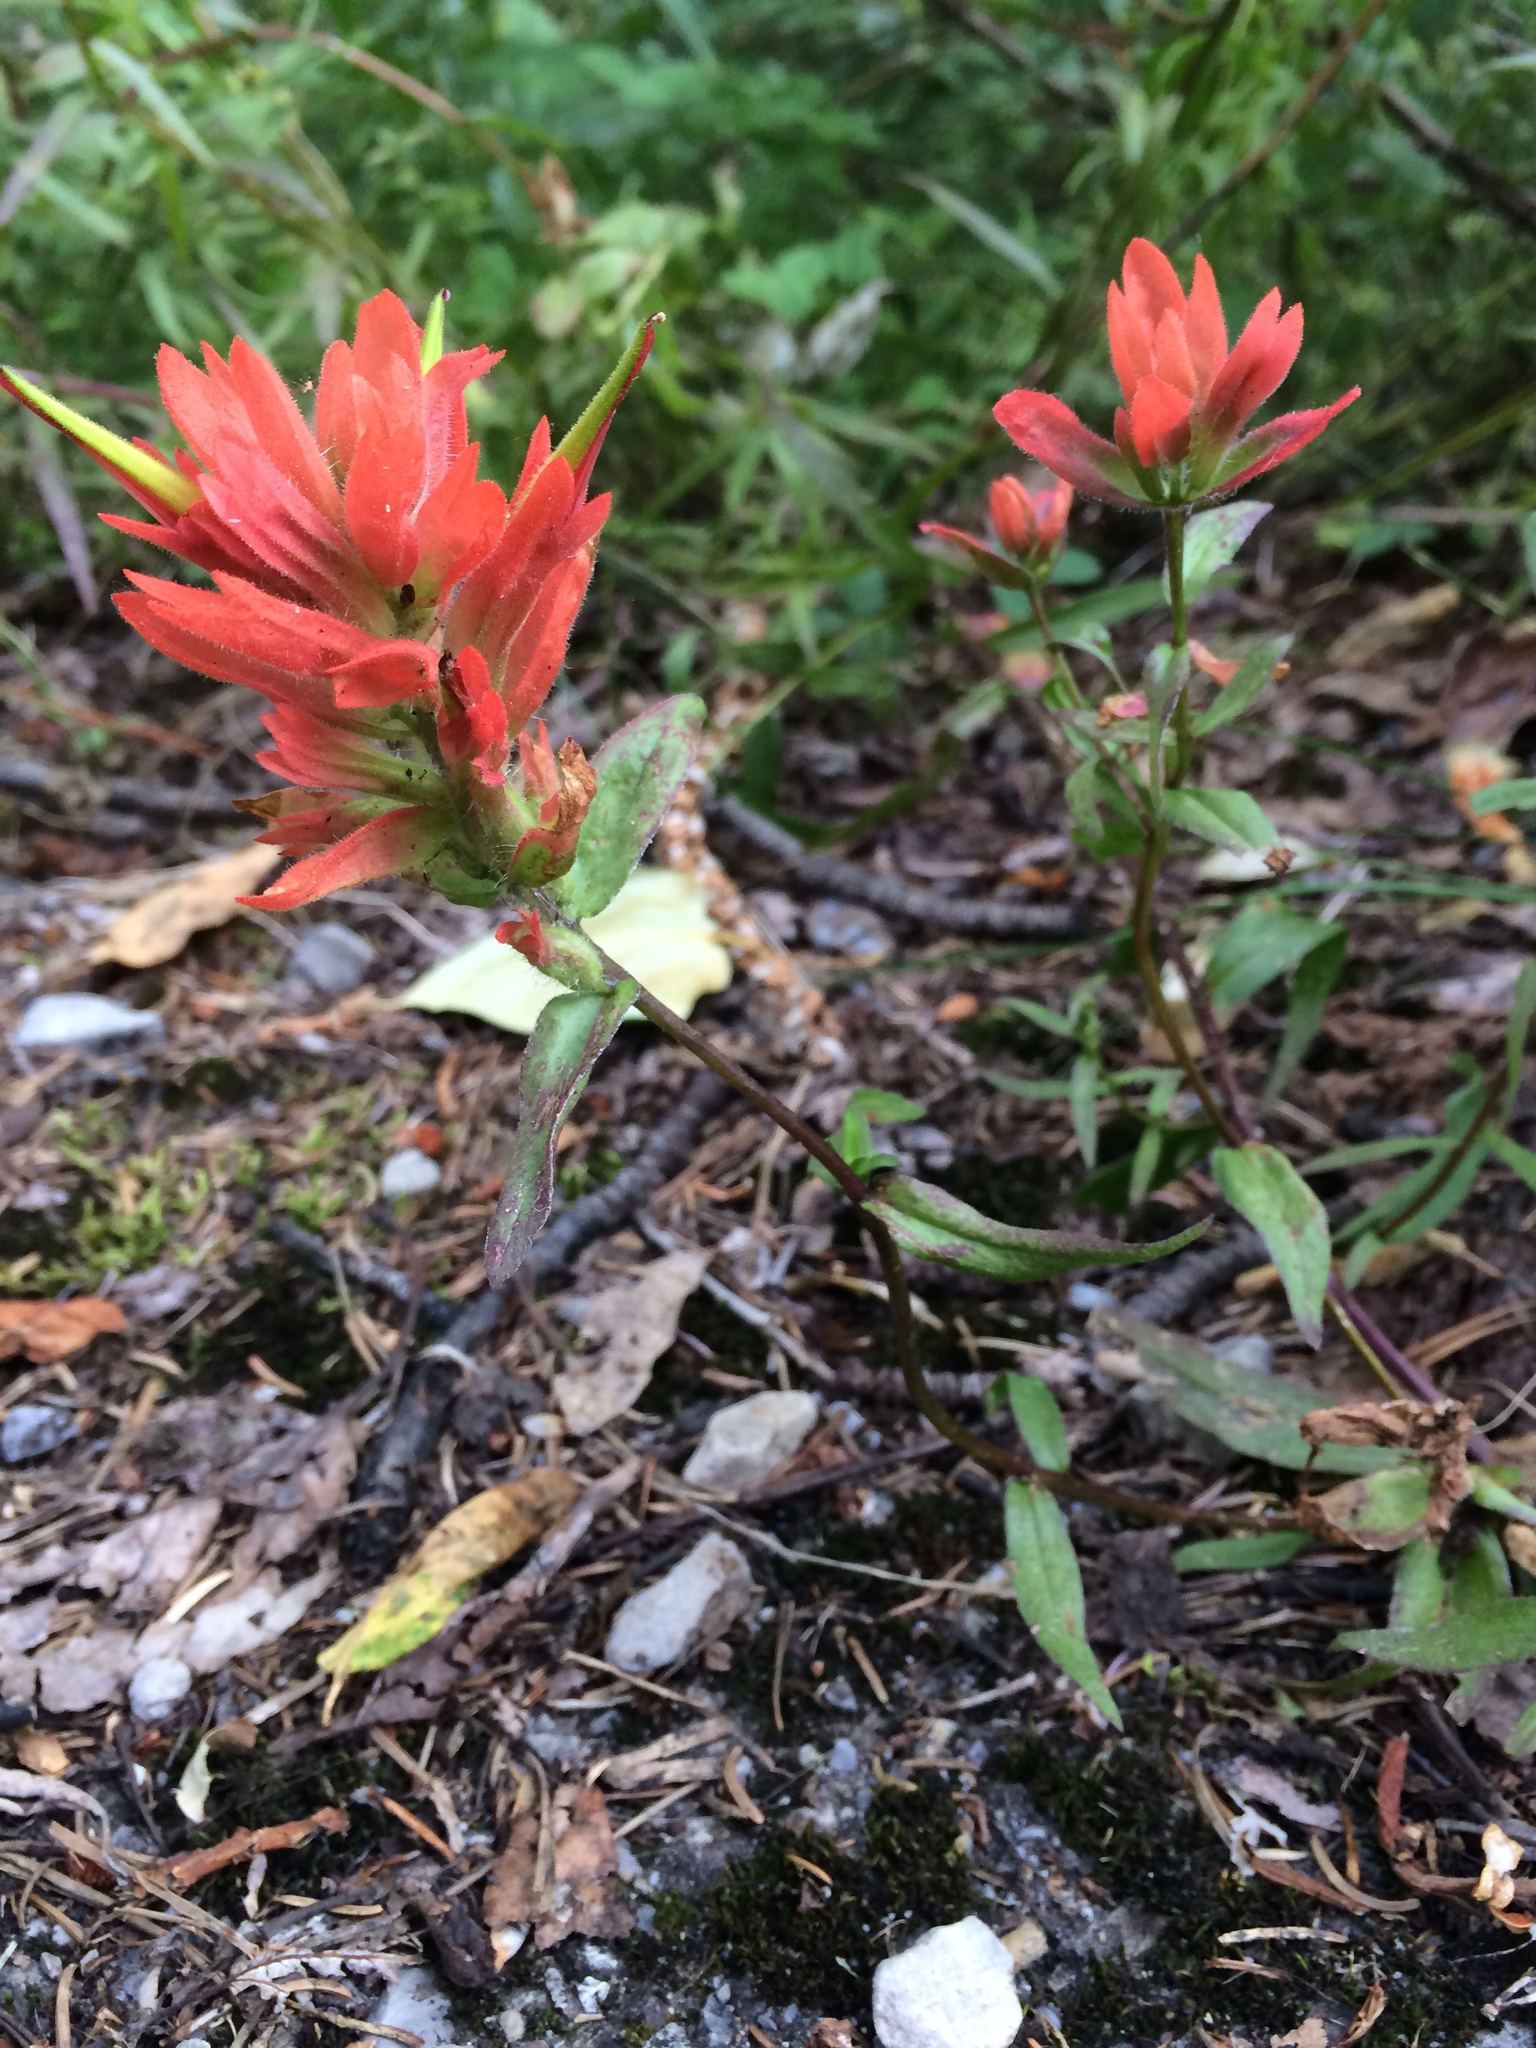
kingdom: Plantae
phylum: Tracheophyta
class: Magnoliopsida
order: Lamiales
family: Orobanchaceae
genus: Castilleja
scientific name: Castilleja miniata
